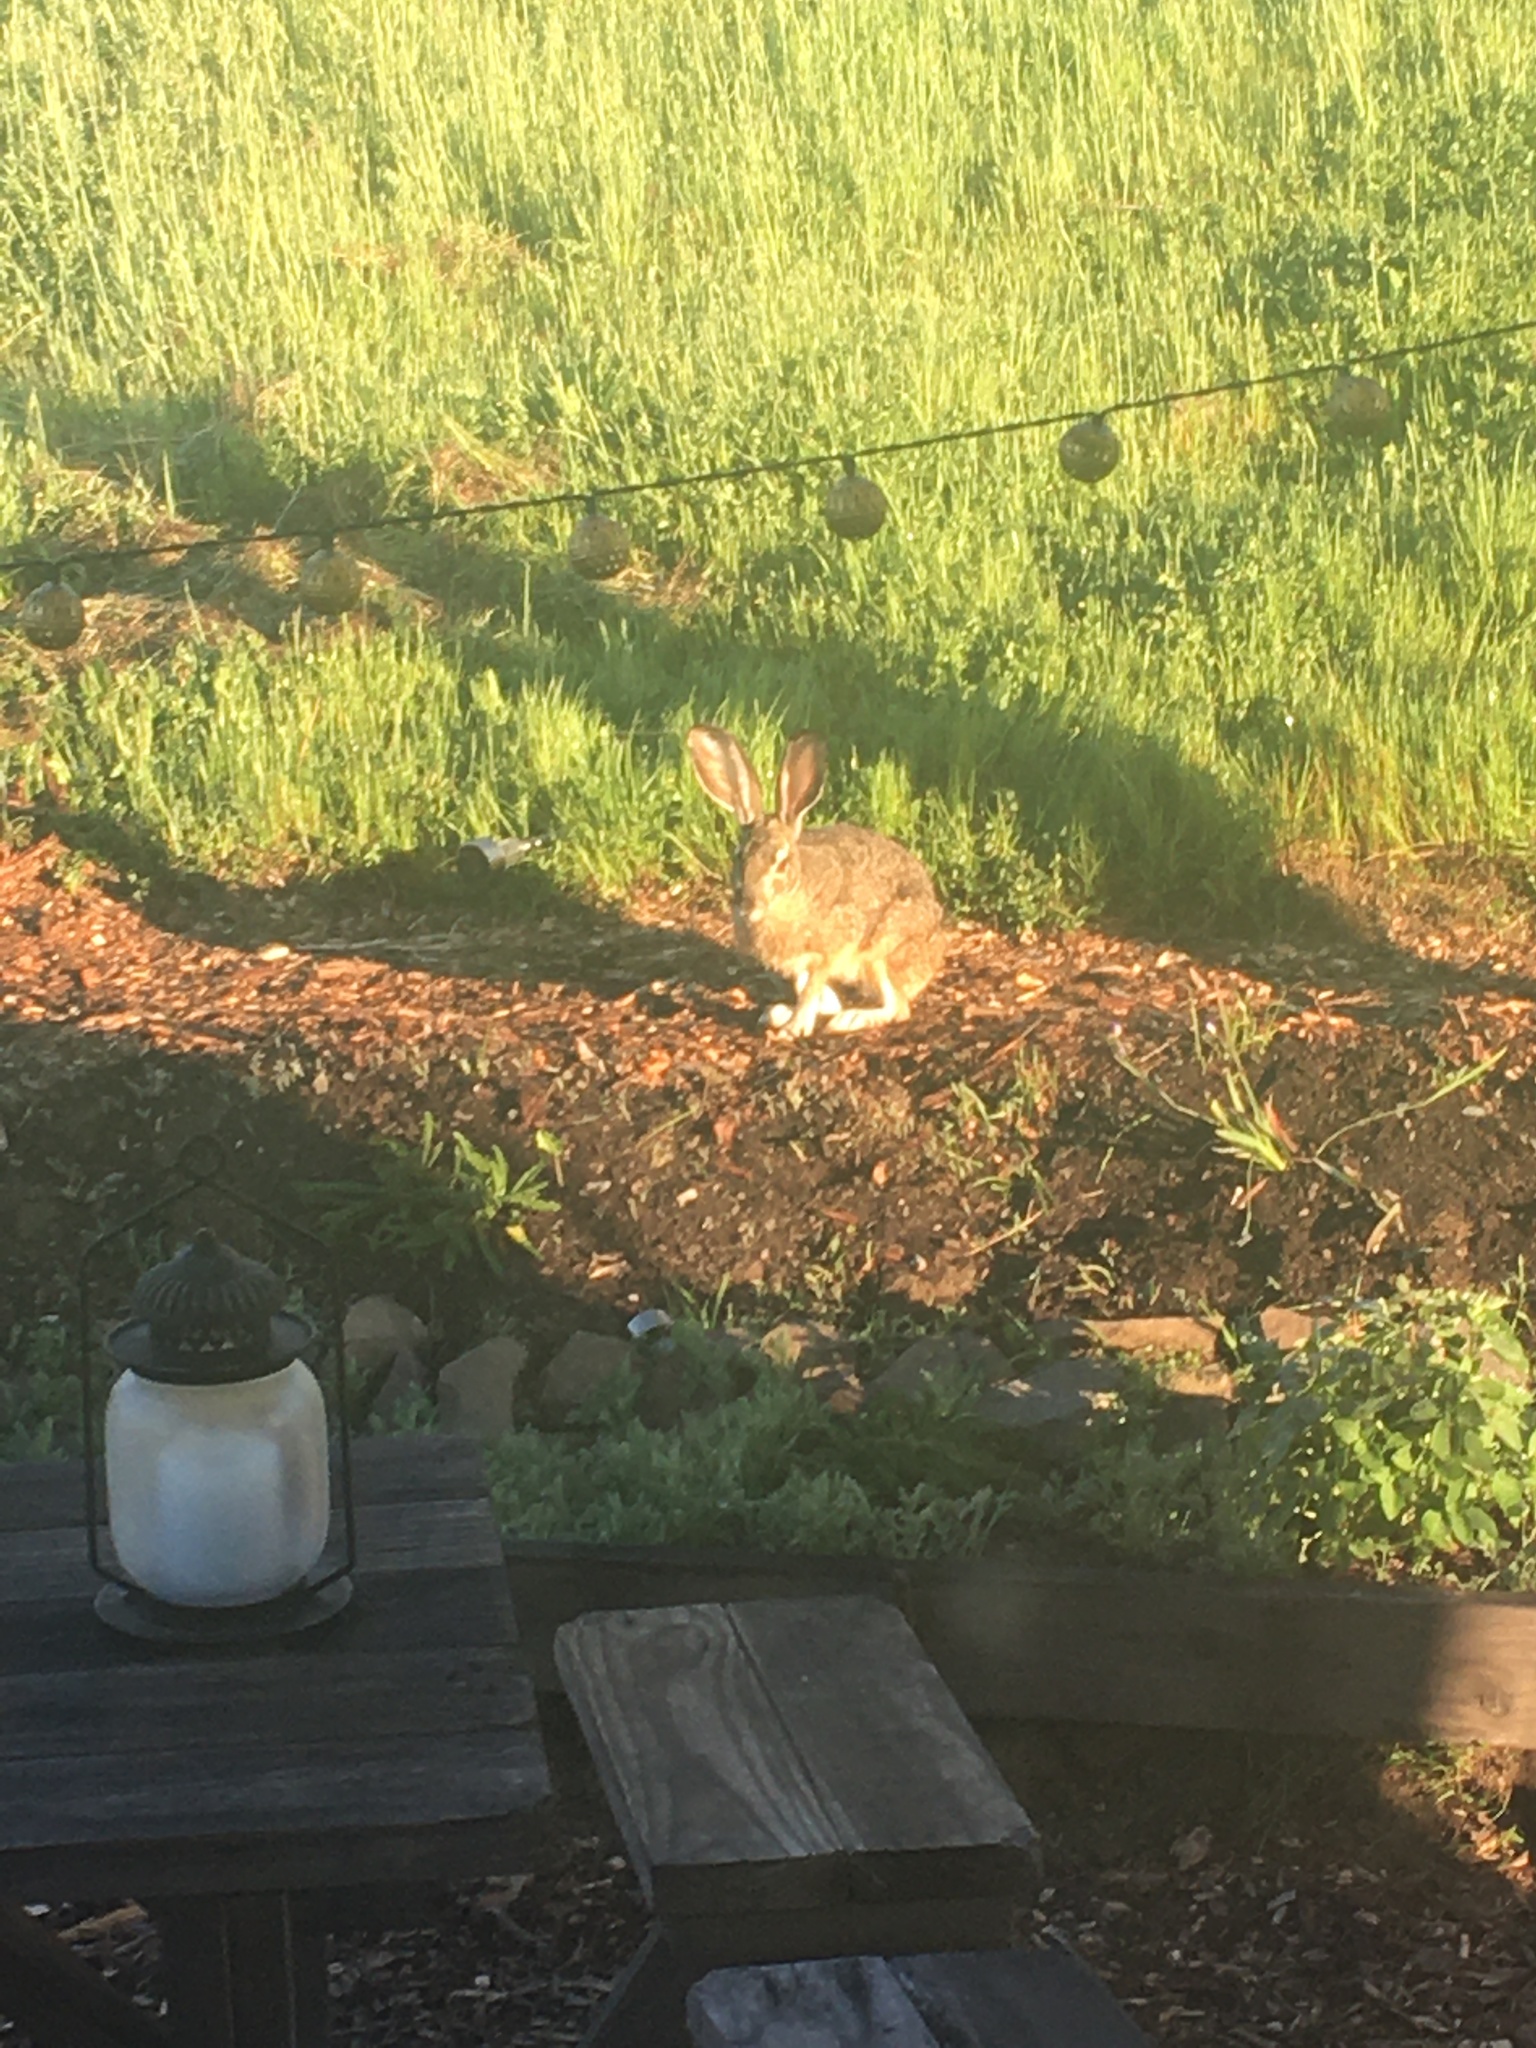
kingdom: Animalia
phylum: Chordata
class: Mammalia
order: Lagomorpha
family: Leporidae
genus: Lepus
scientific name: Lepus californicus
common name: Black-tailed jackrabbit
